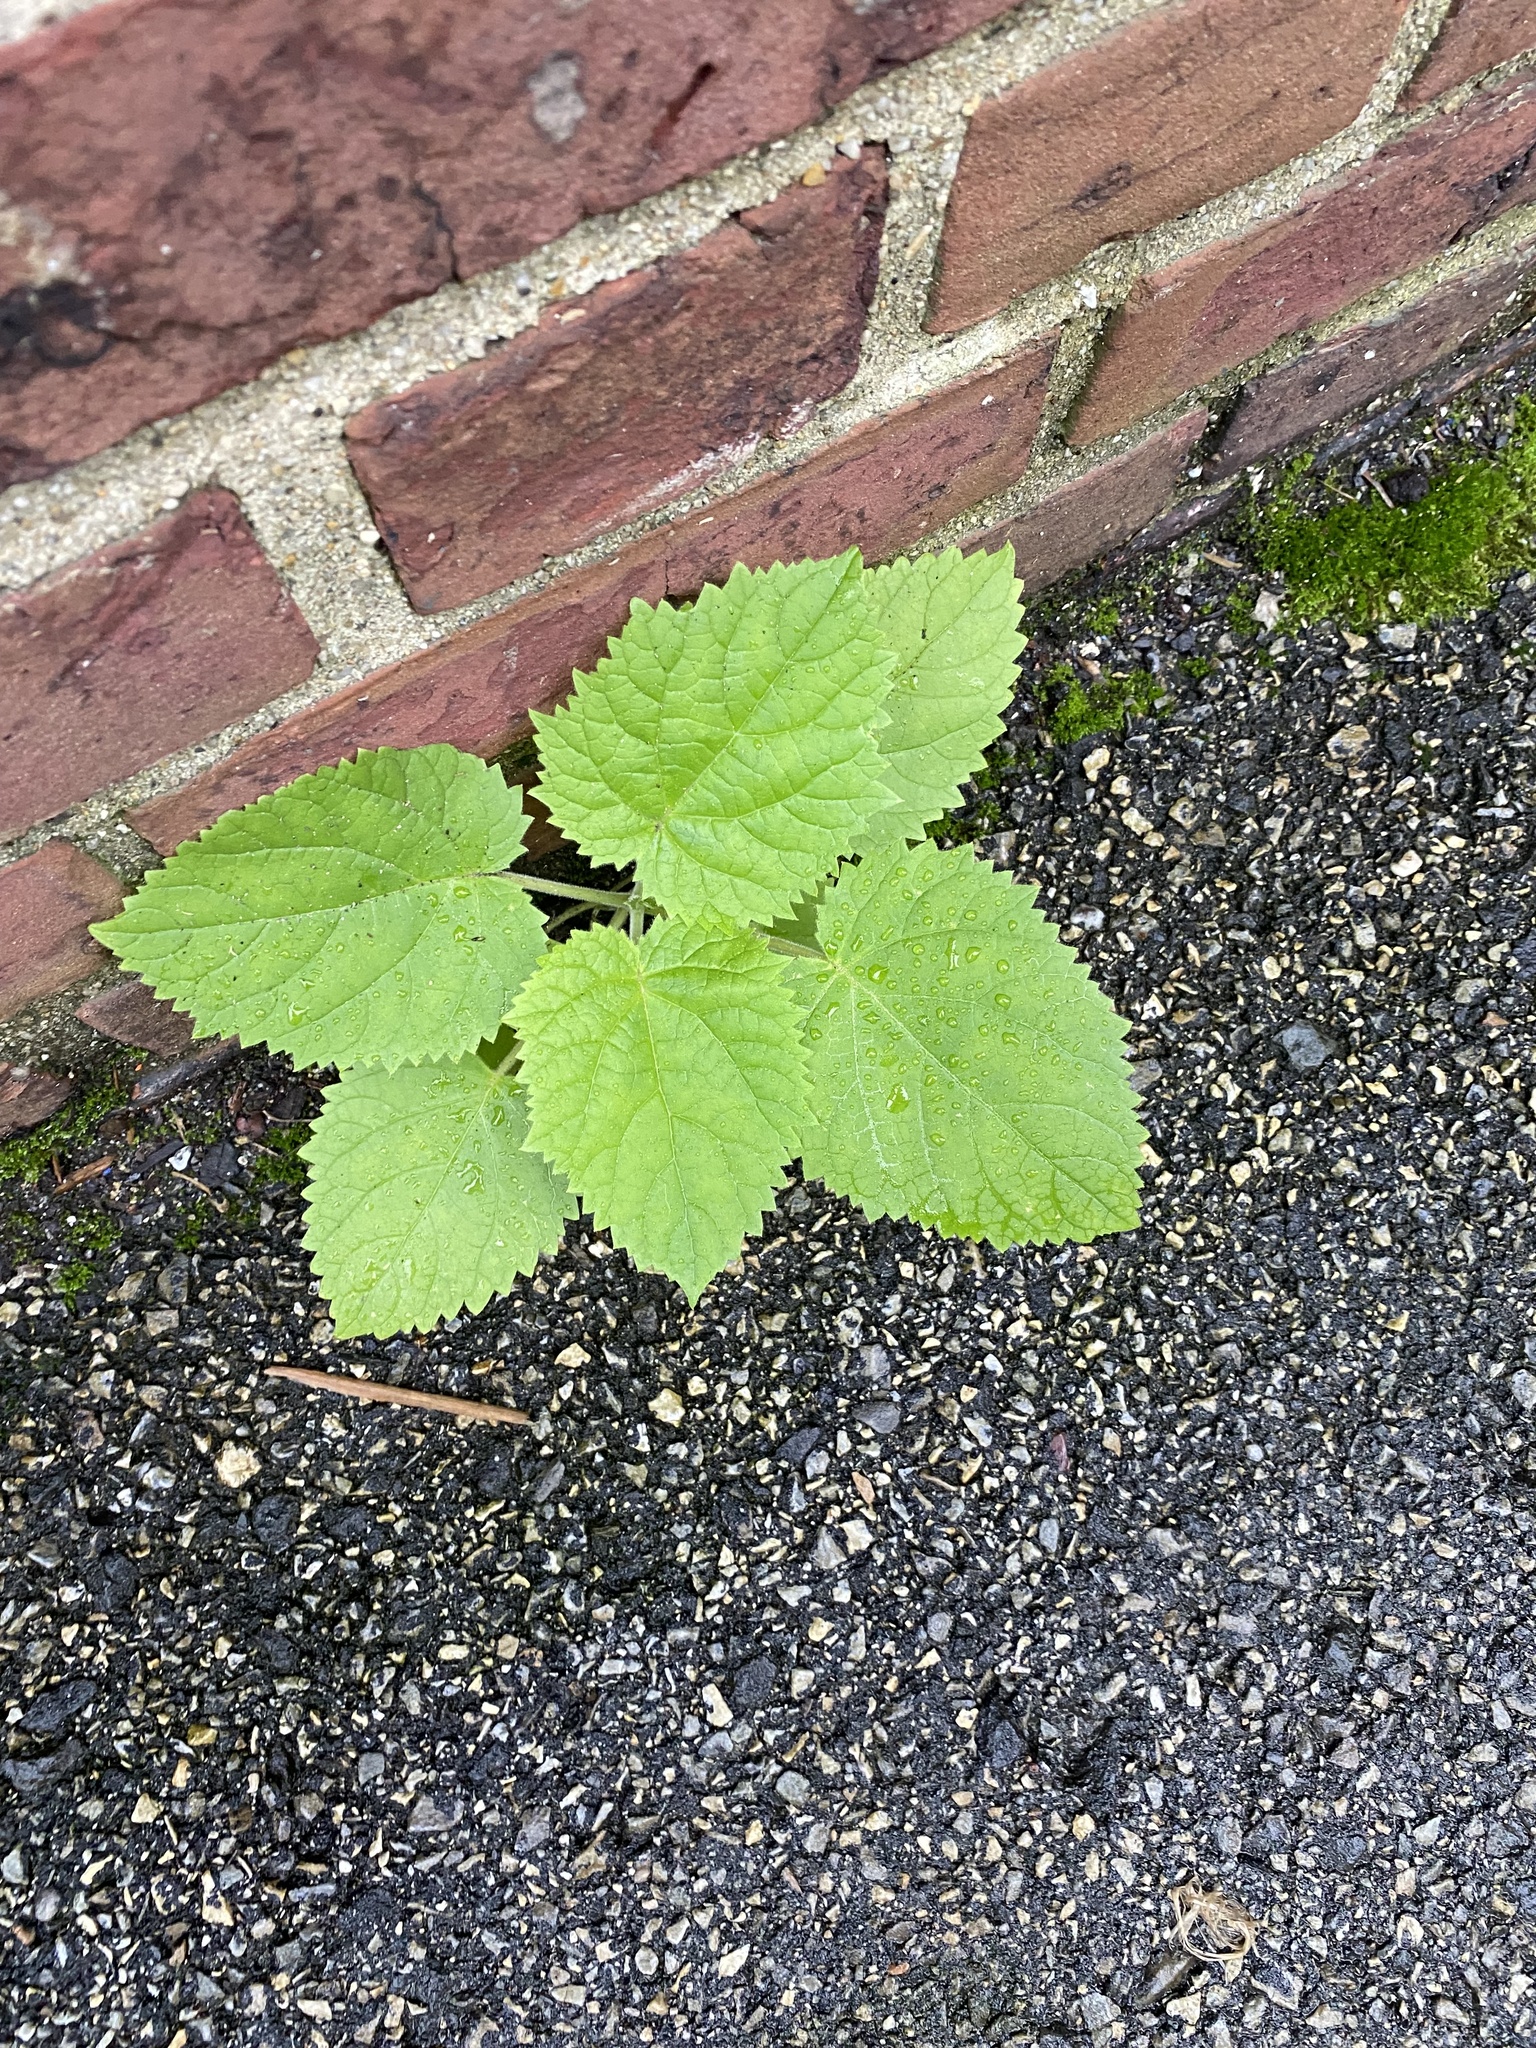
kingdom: Plantae
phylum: Tracheophyta
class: Magnoliopsida
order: Lamiales
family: Paulowniaceae
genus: Paulownia
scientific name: Paulownia tomentosa
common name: Foxglove-tree
